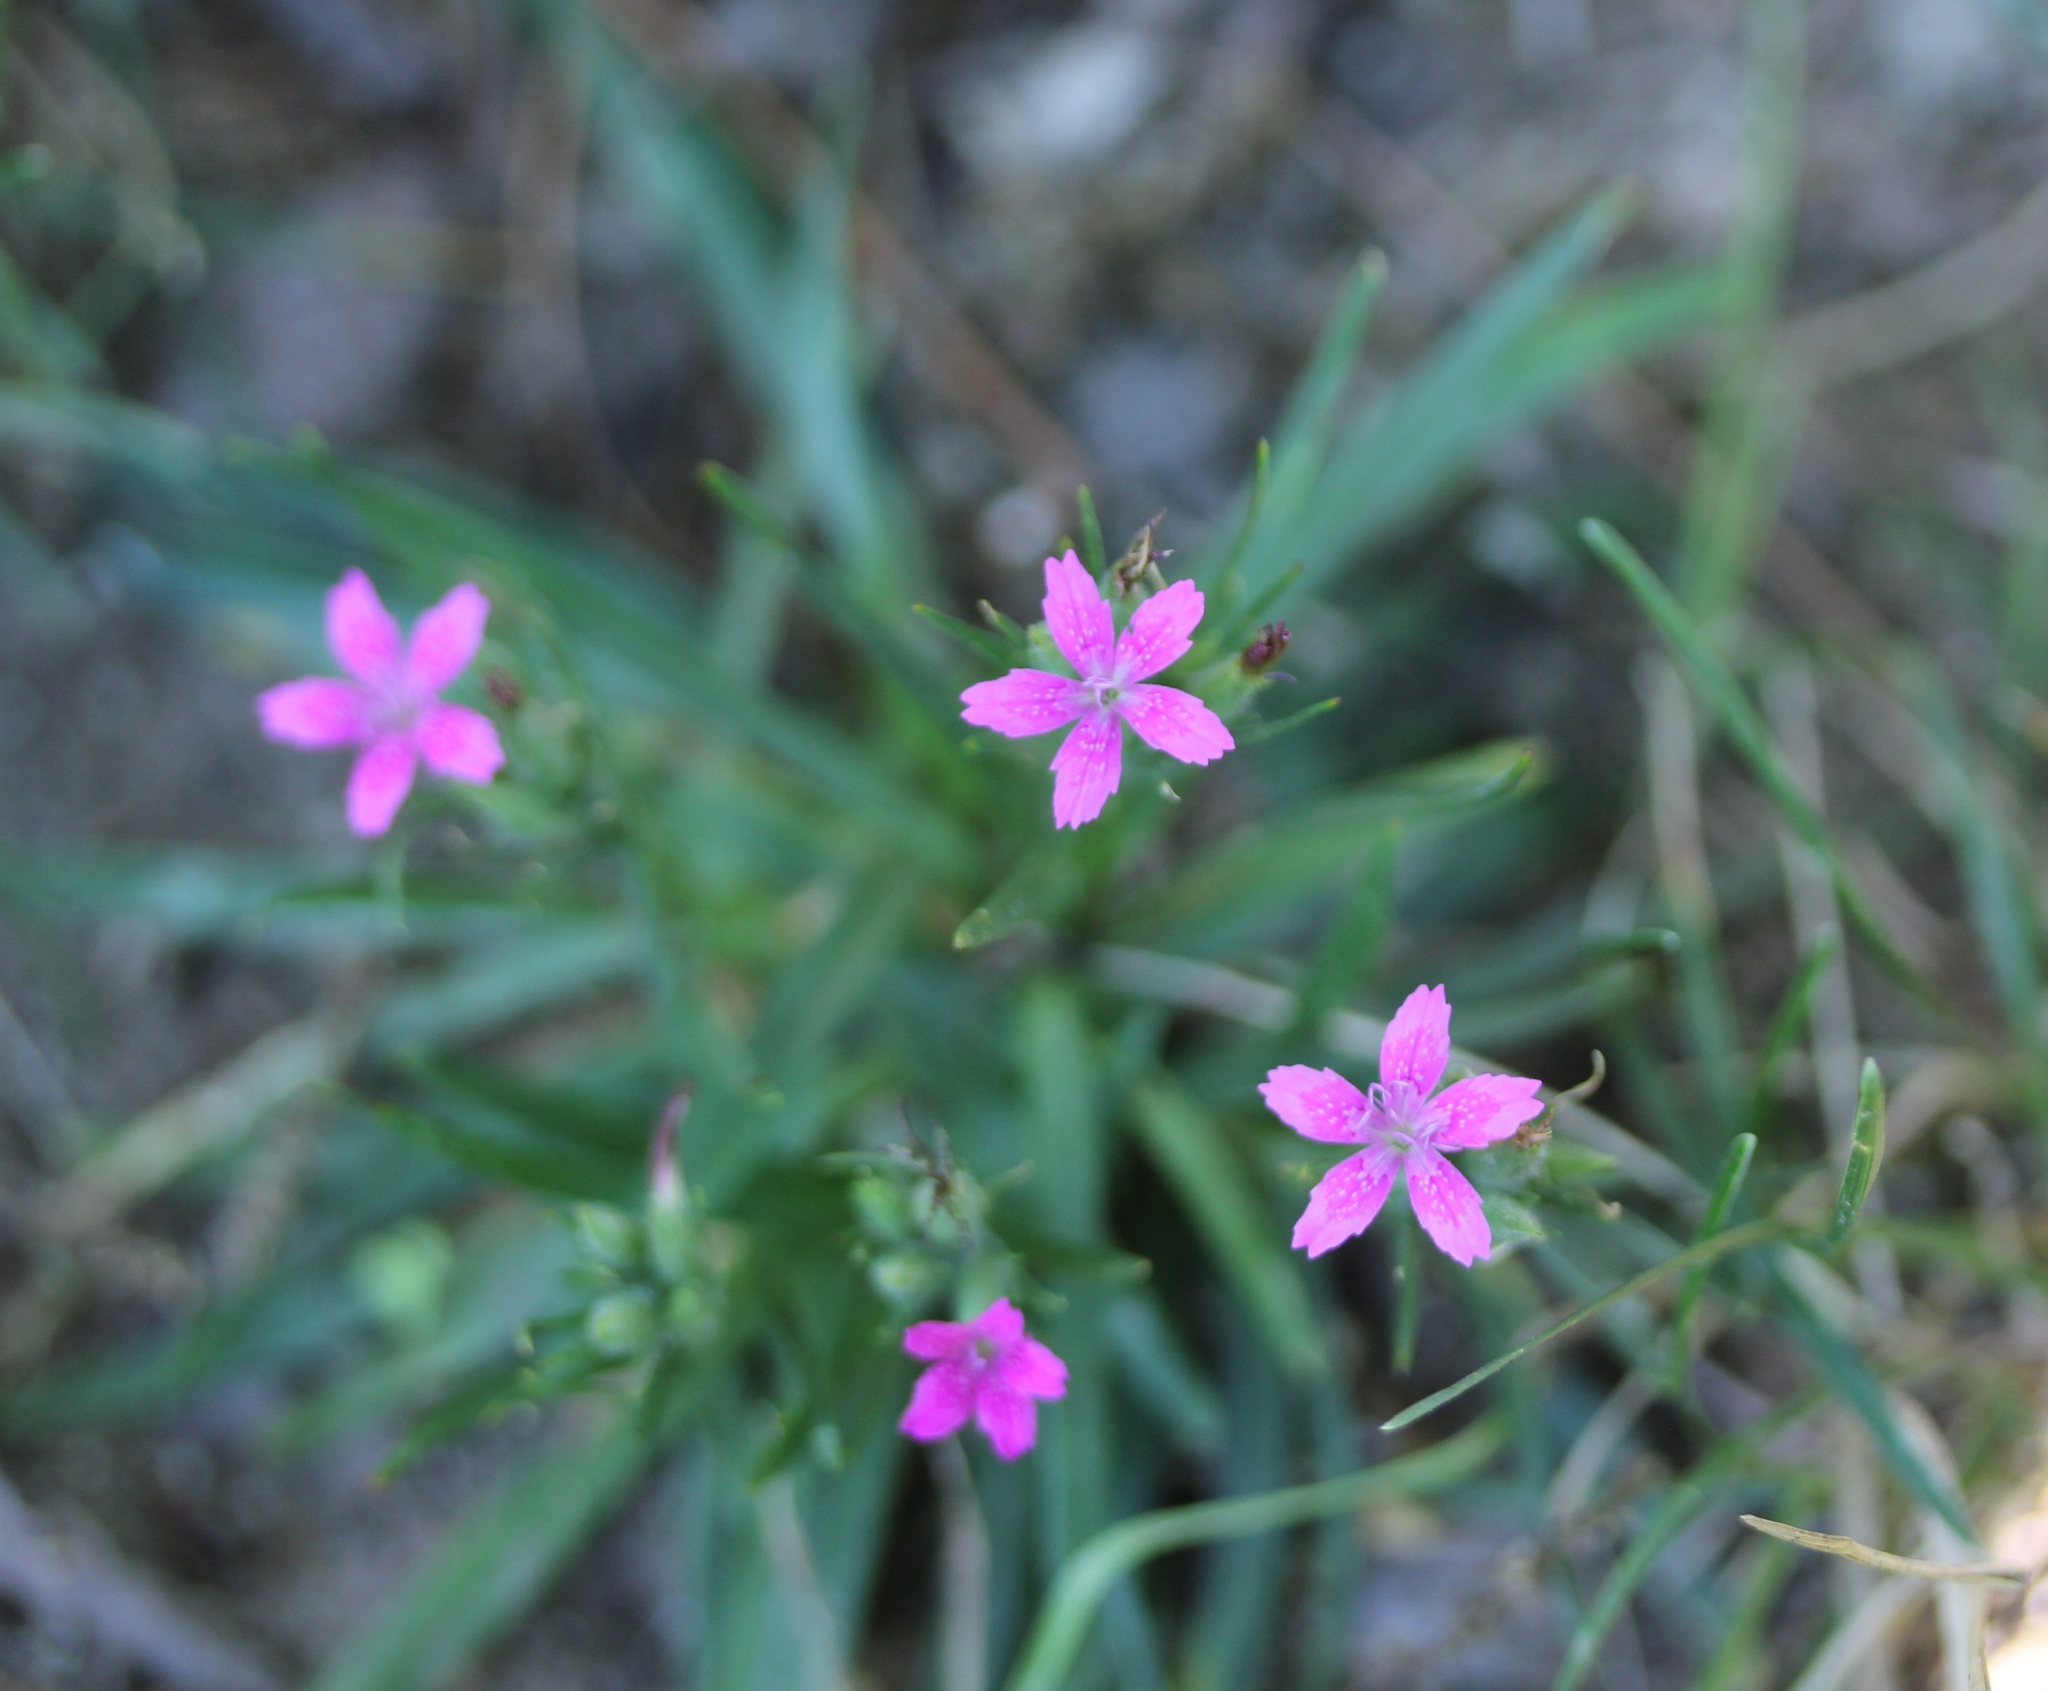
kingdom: Plantae
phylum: Tracheophyta
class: Magnoliopsida
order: Caryophyllales
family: Caryophyllaceae
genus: Dianthus
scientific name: Dianthus armeria
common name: Deptford pink
